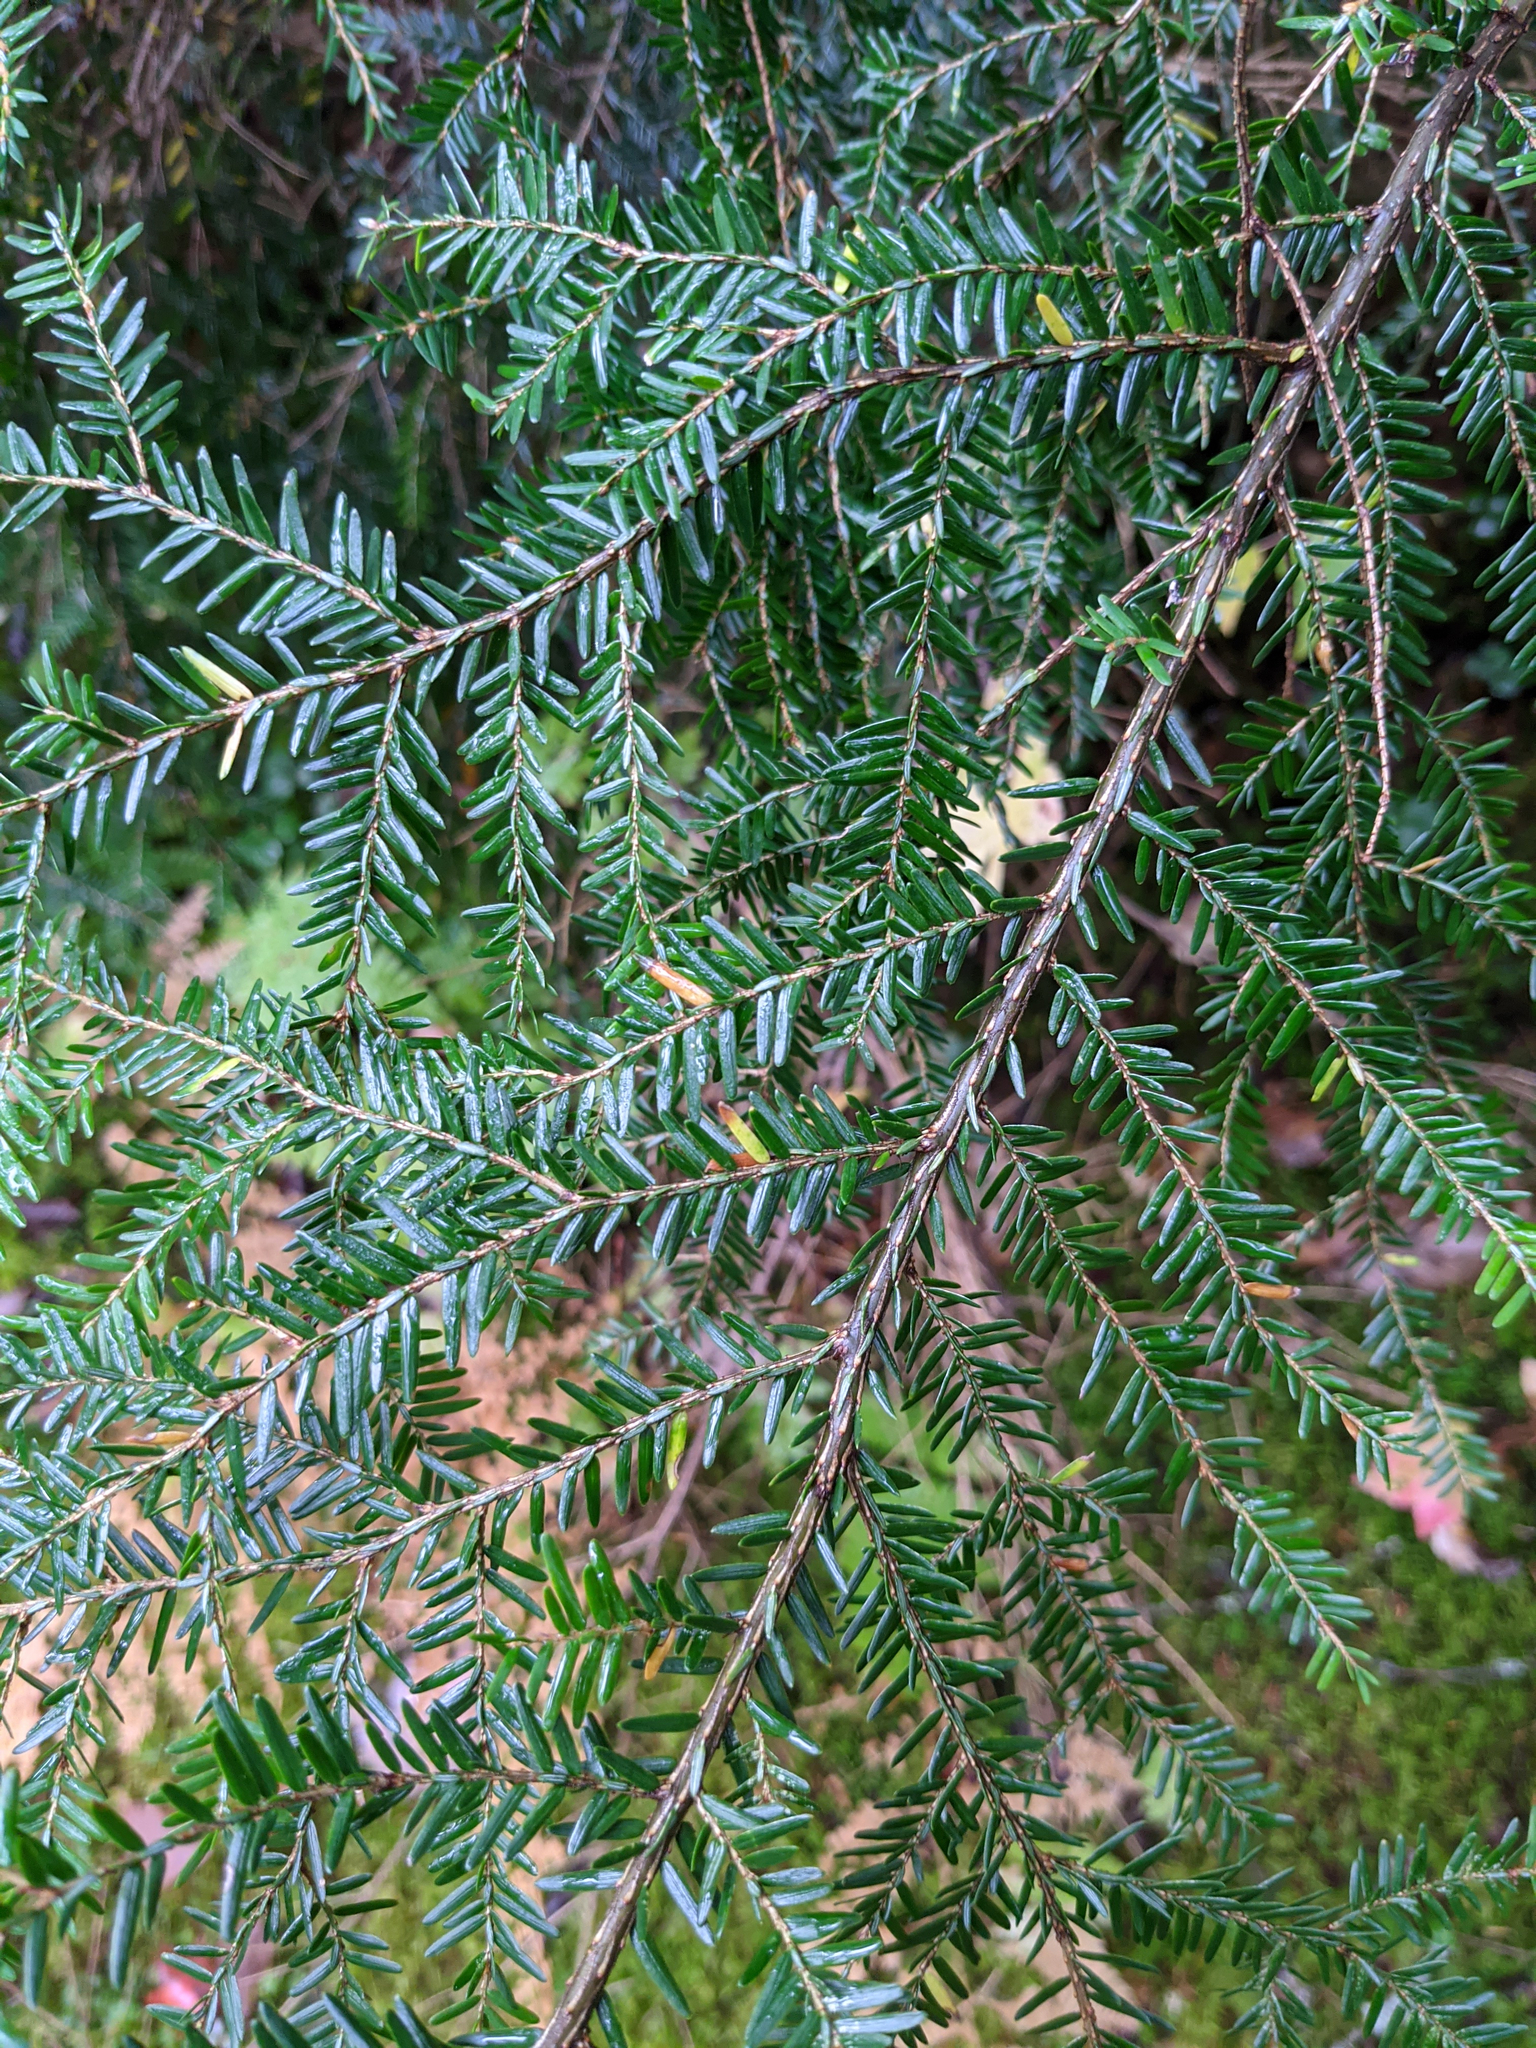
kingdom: Plantae
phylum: Tracheophyta
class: Pinopsida
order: Pinales
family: Pinaceae
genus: Tsuga
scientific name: Tsuga canadensis
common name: Eastern hemlock
